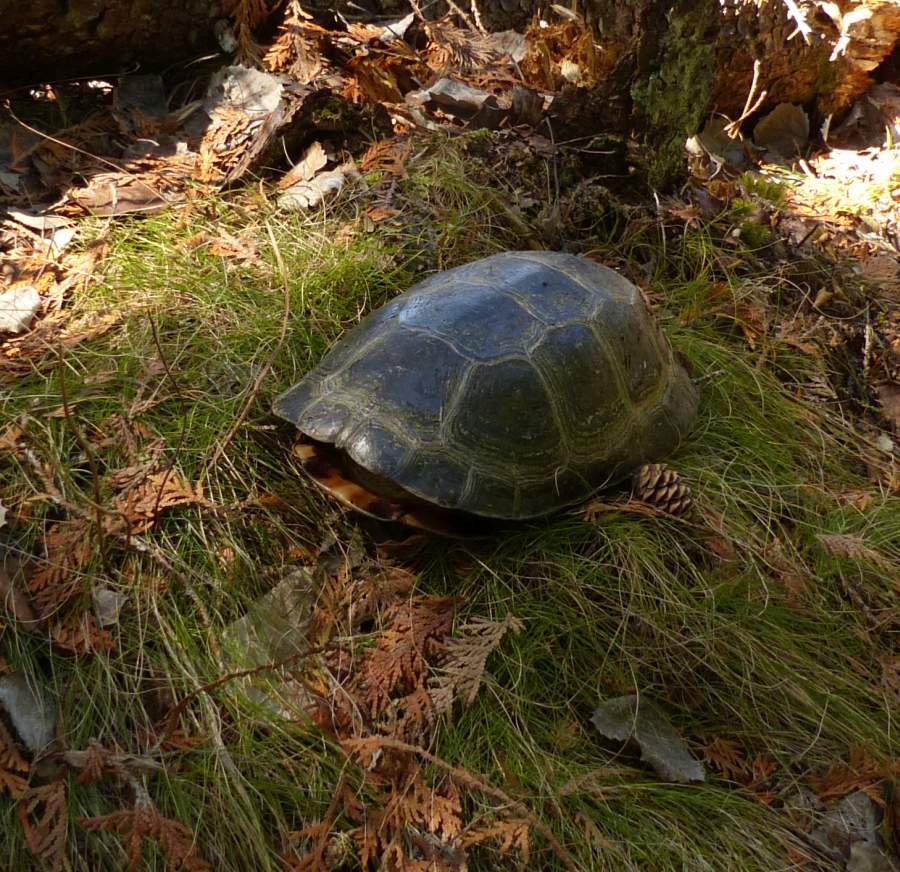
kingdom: Animalia
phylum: Chordata
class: Testudines
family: Emydidae
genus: Emys
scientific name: Emys blandingii
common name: Blanding's turtle
